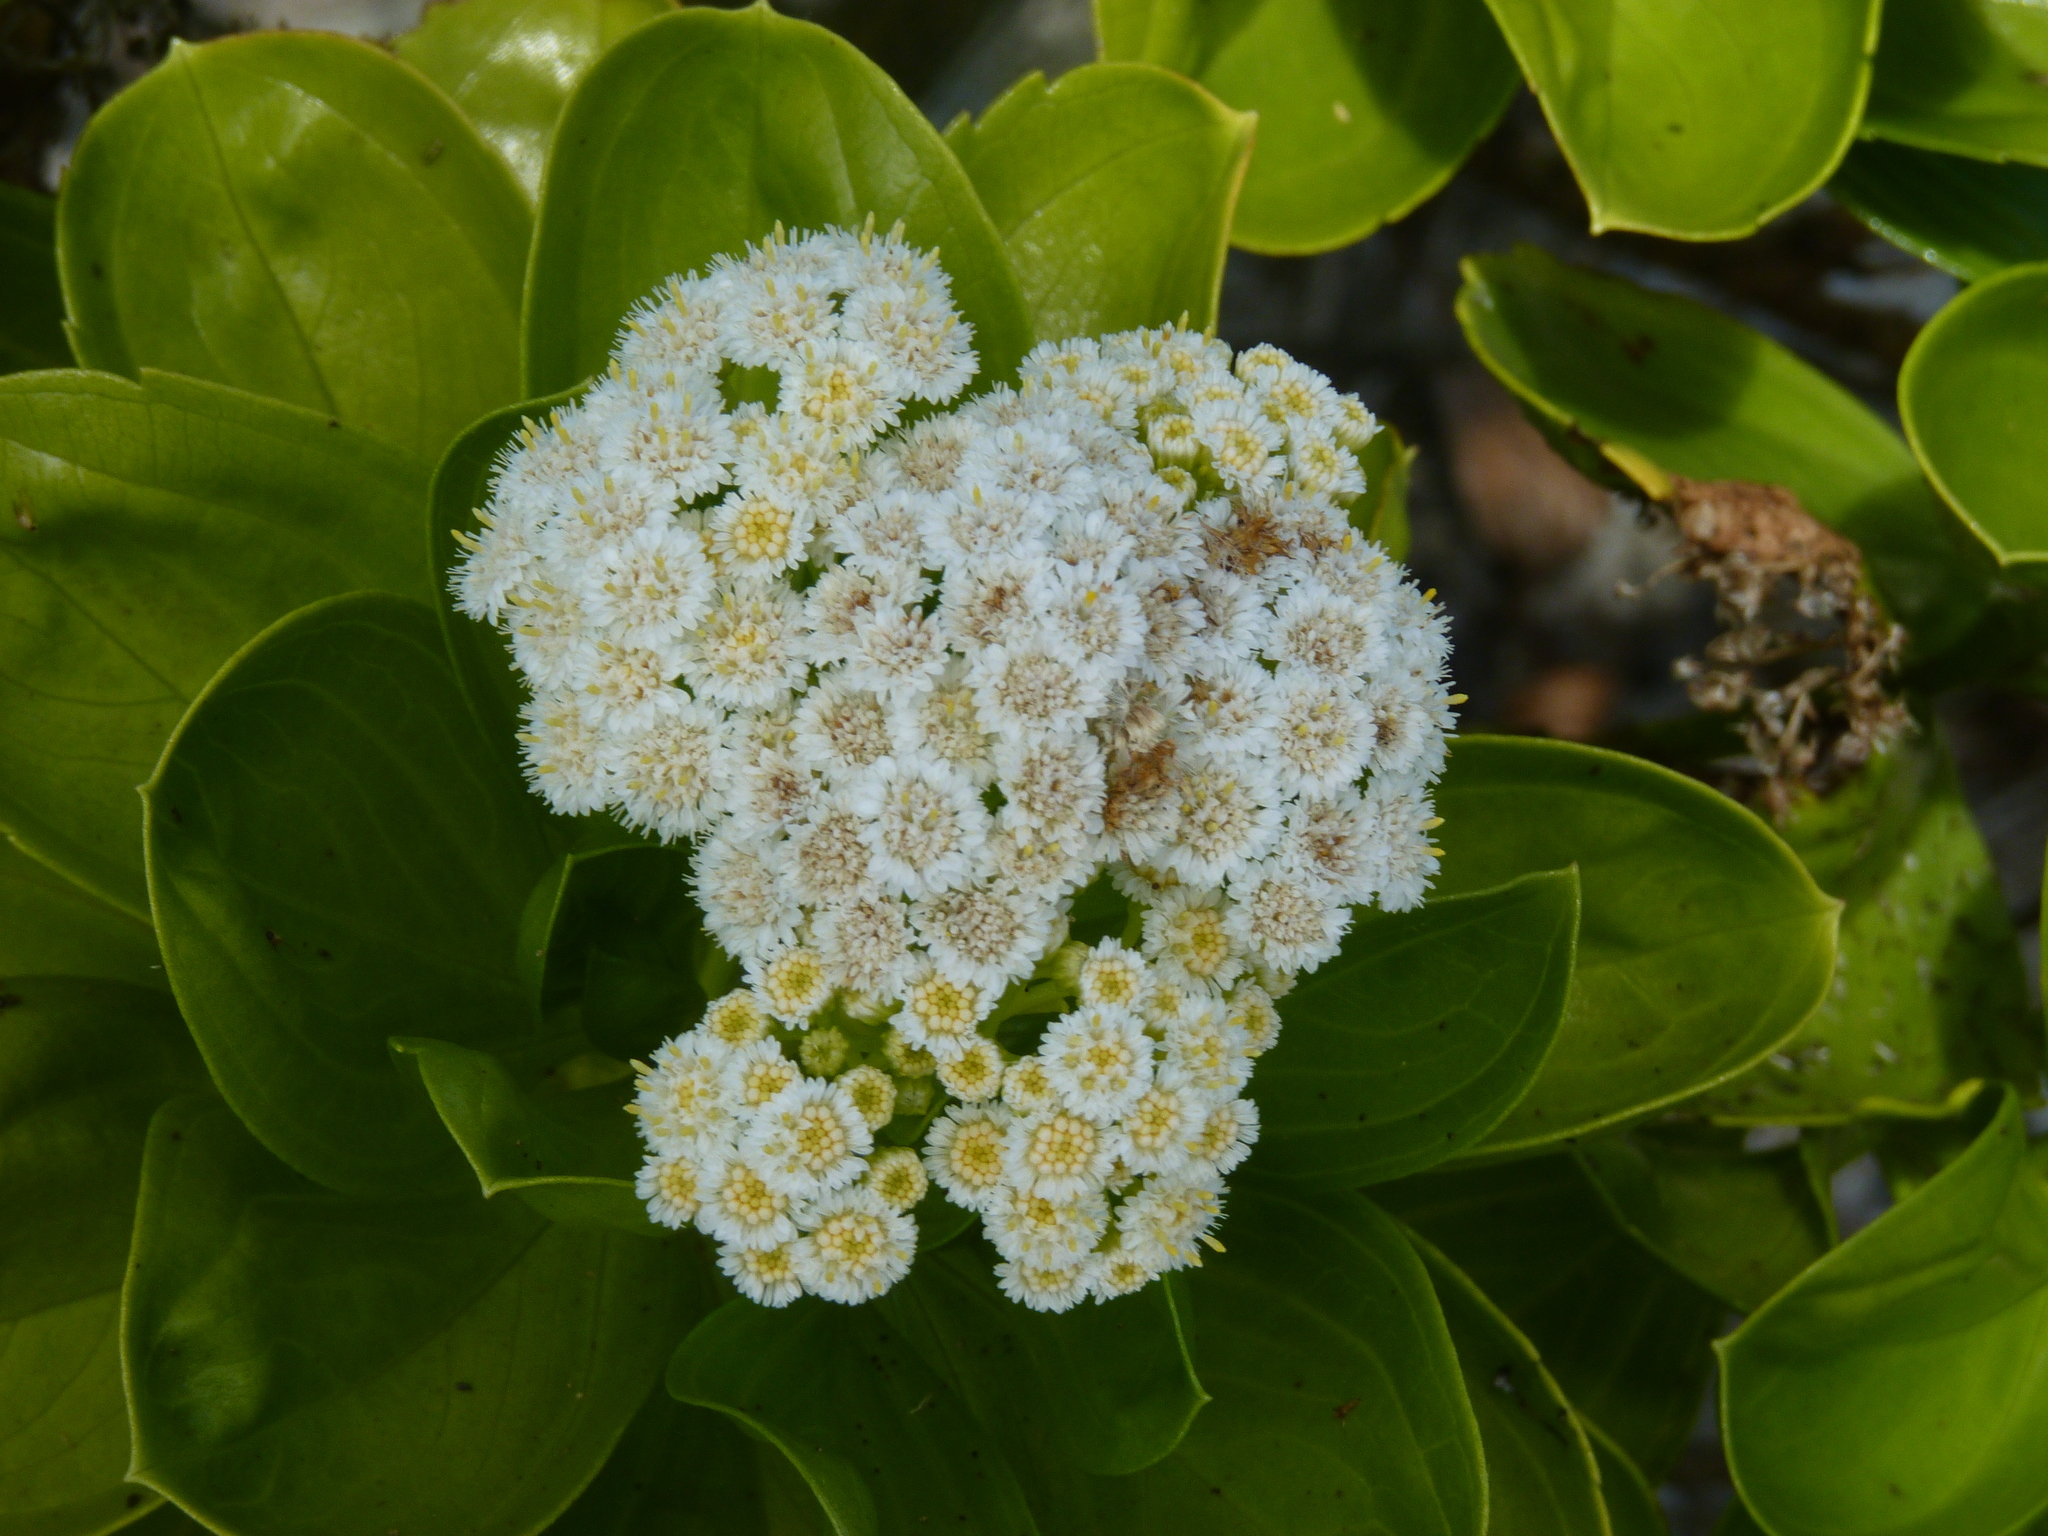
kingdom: Plantae
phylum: Tracheophyta
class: Magnoliopsida
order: Asterales
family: Asteraceae
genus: Psiadia
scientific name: Psiadia arguta
